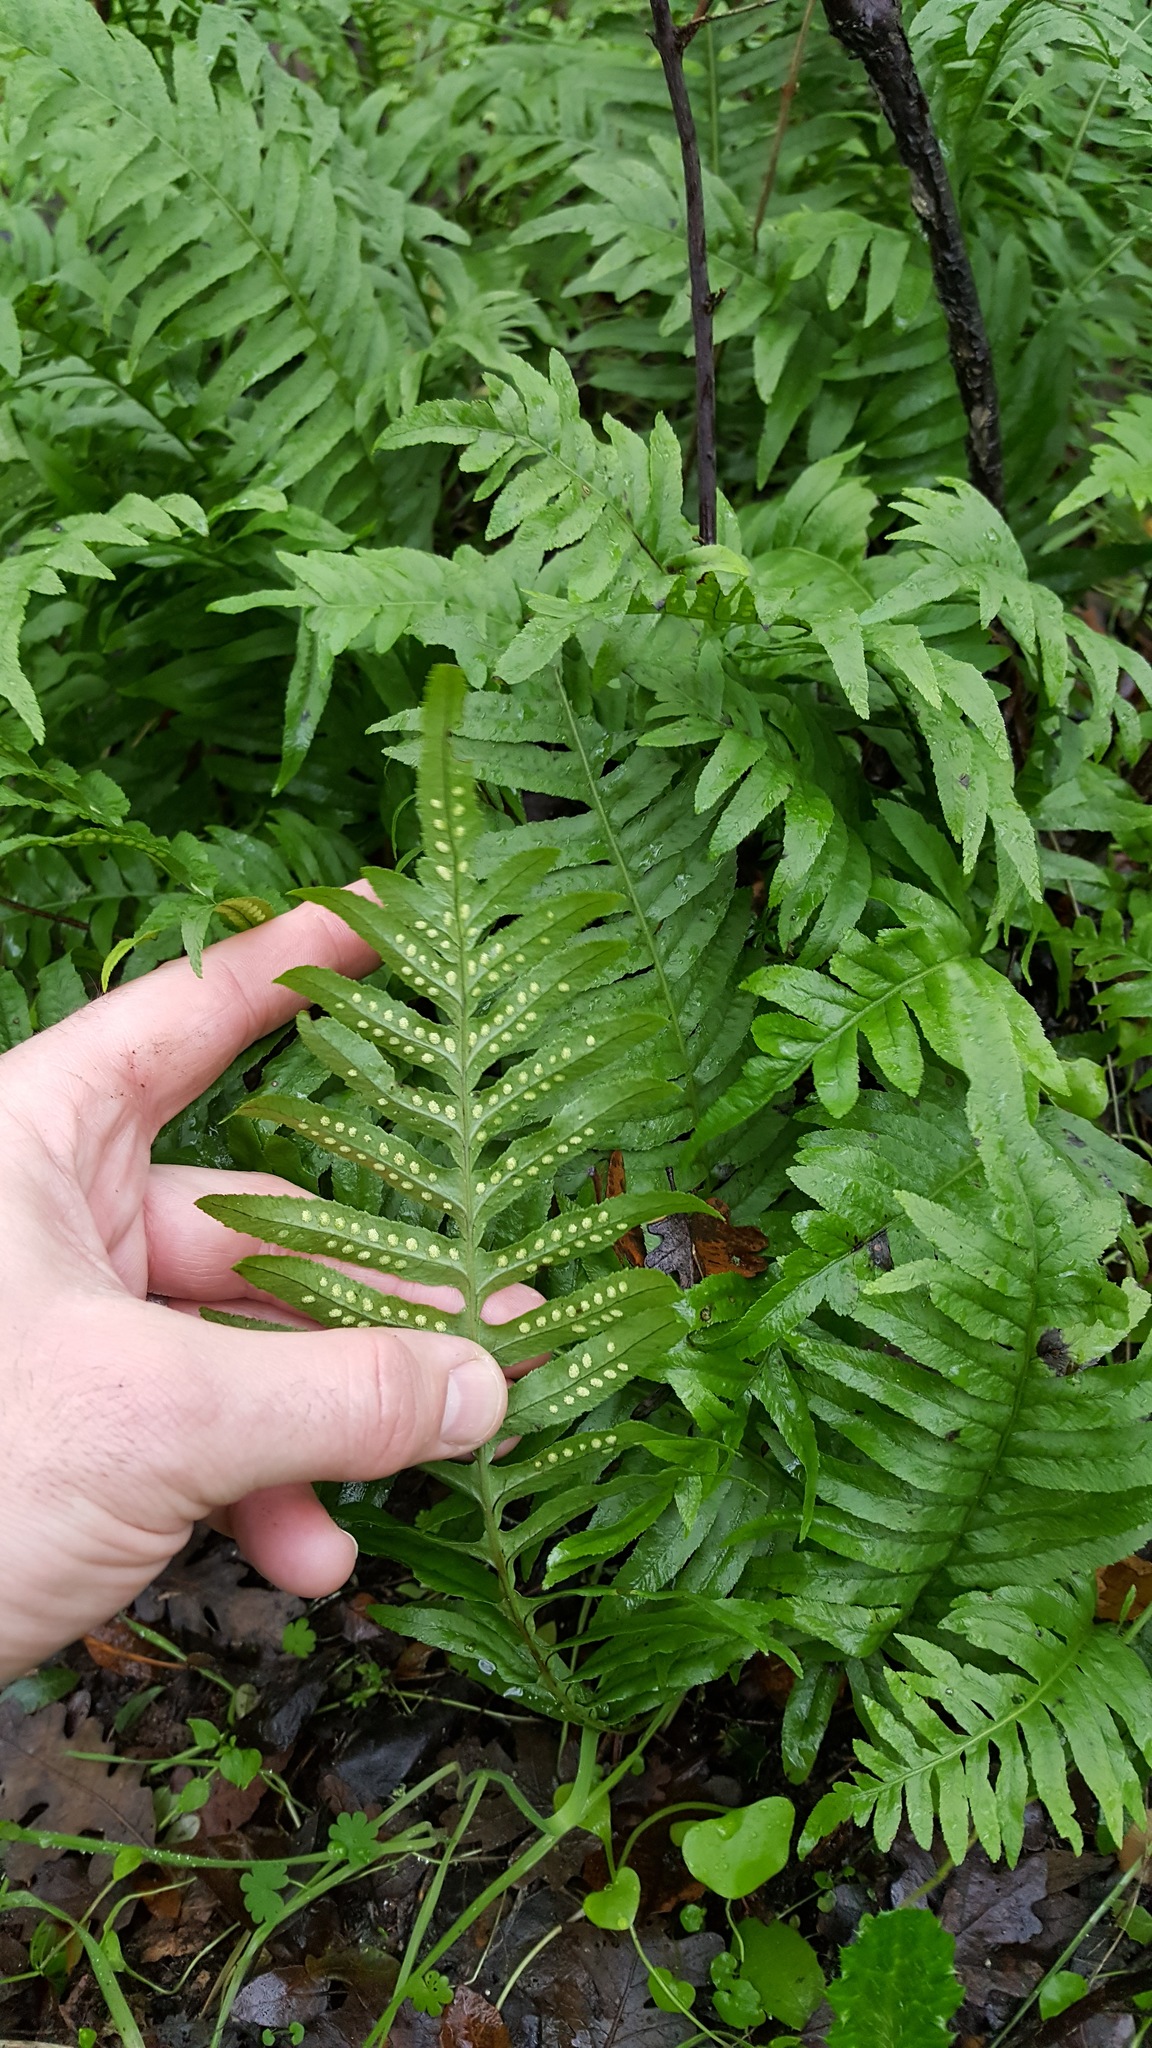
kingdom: Plantae
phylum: Tracheophyta
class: Polypodiopsida
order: Polypodiales
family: Polypodiaceae
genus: Polypodium
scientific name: Polypodium calirhiza
